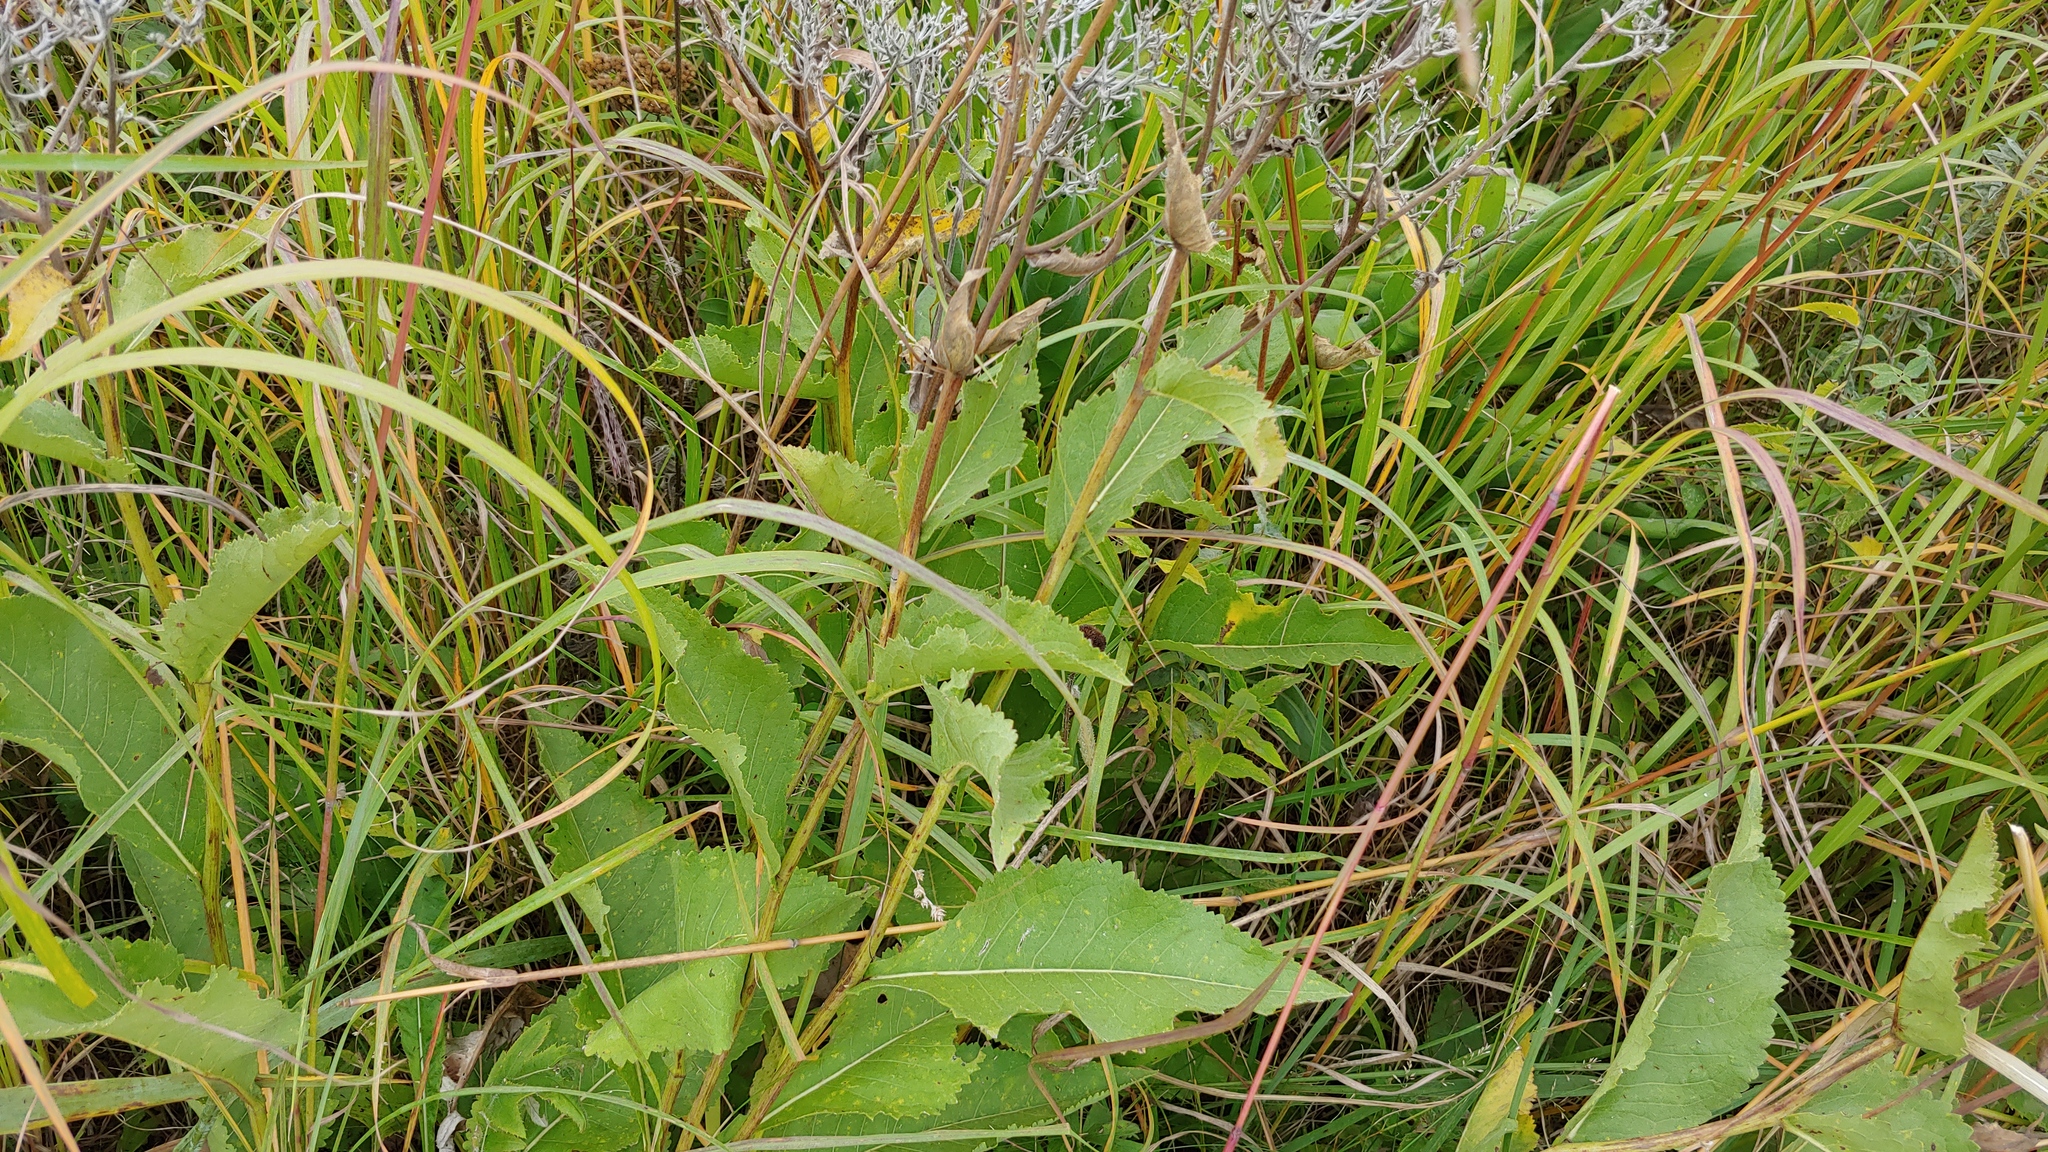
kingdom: Plantae
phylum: Tracheophyta
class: Magnoliopsida
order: Asterales
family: Asteraceae
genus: Parthenium
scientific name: Parthenium integrifolium
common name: American feverfew
